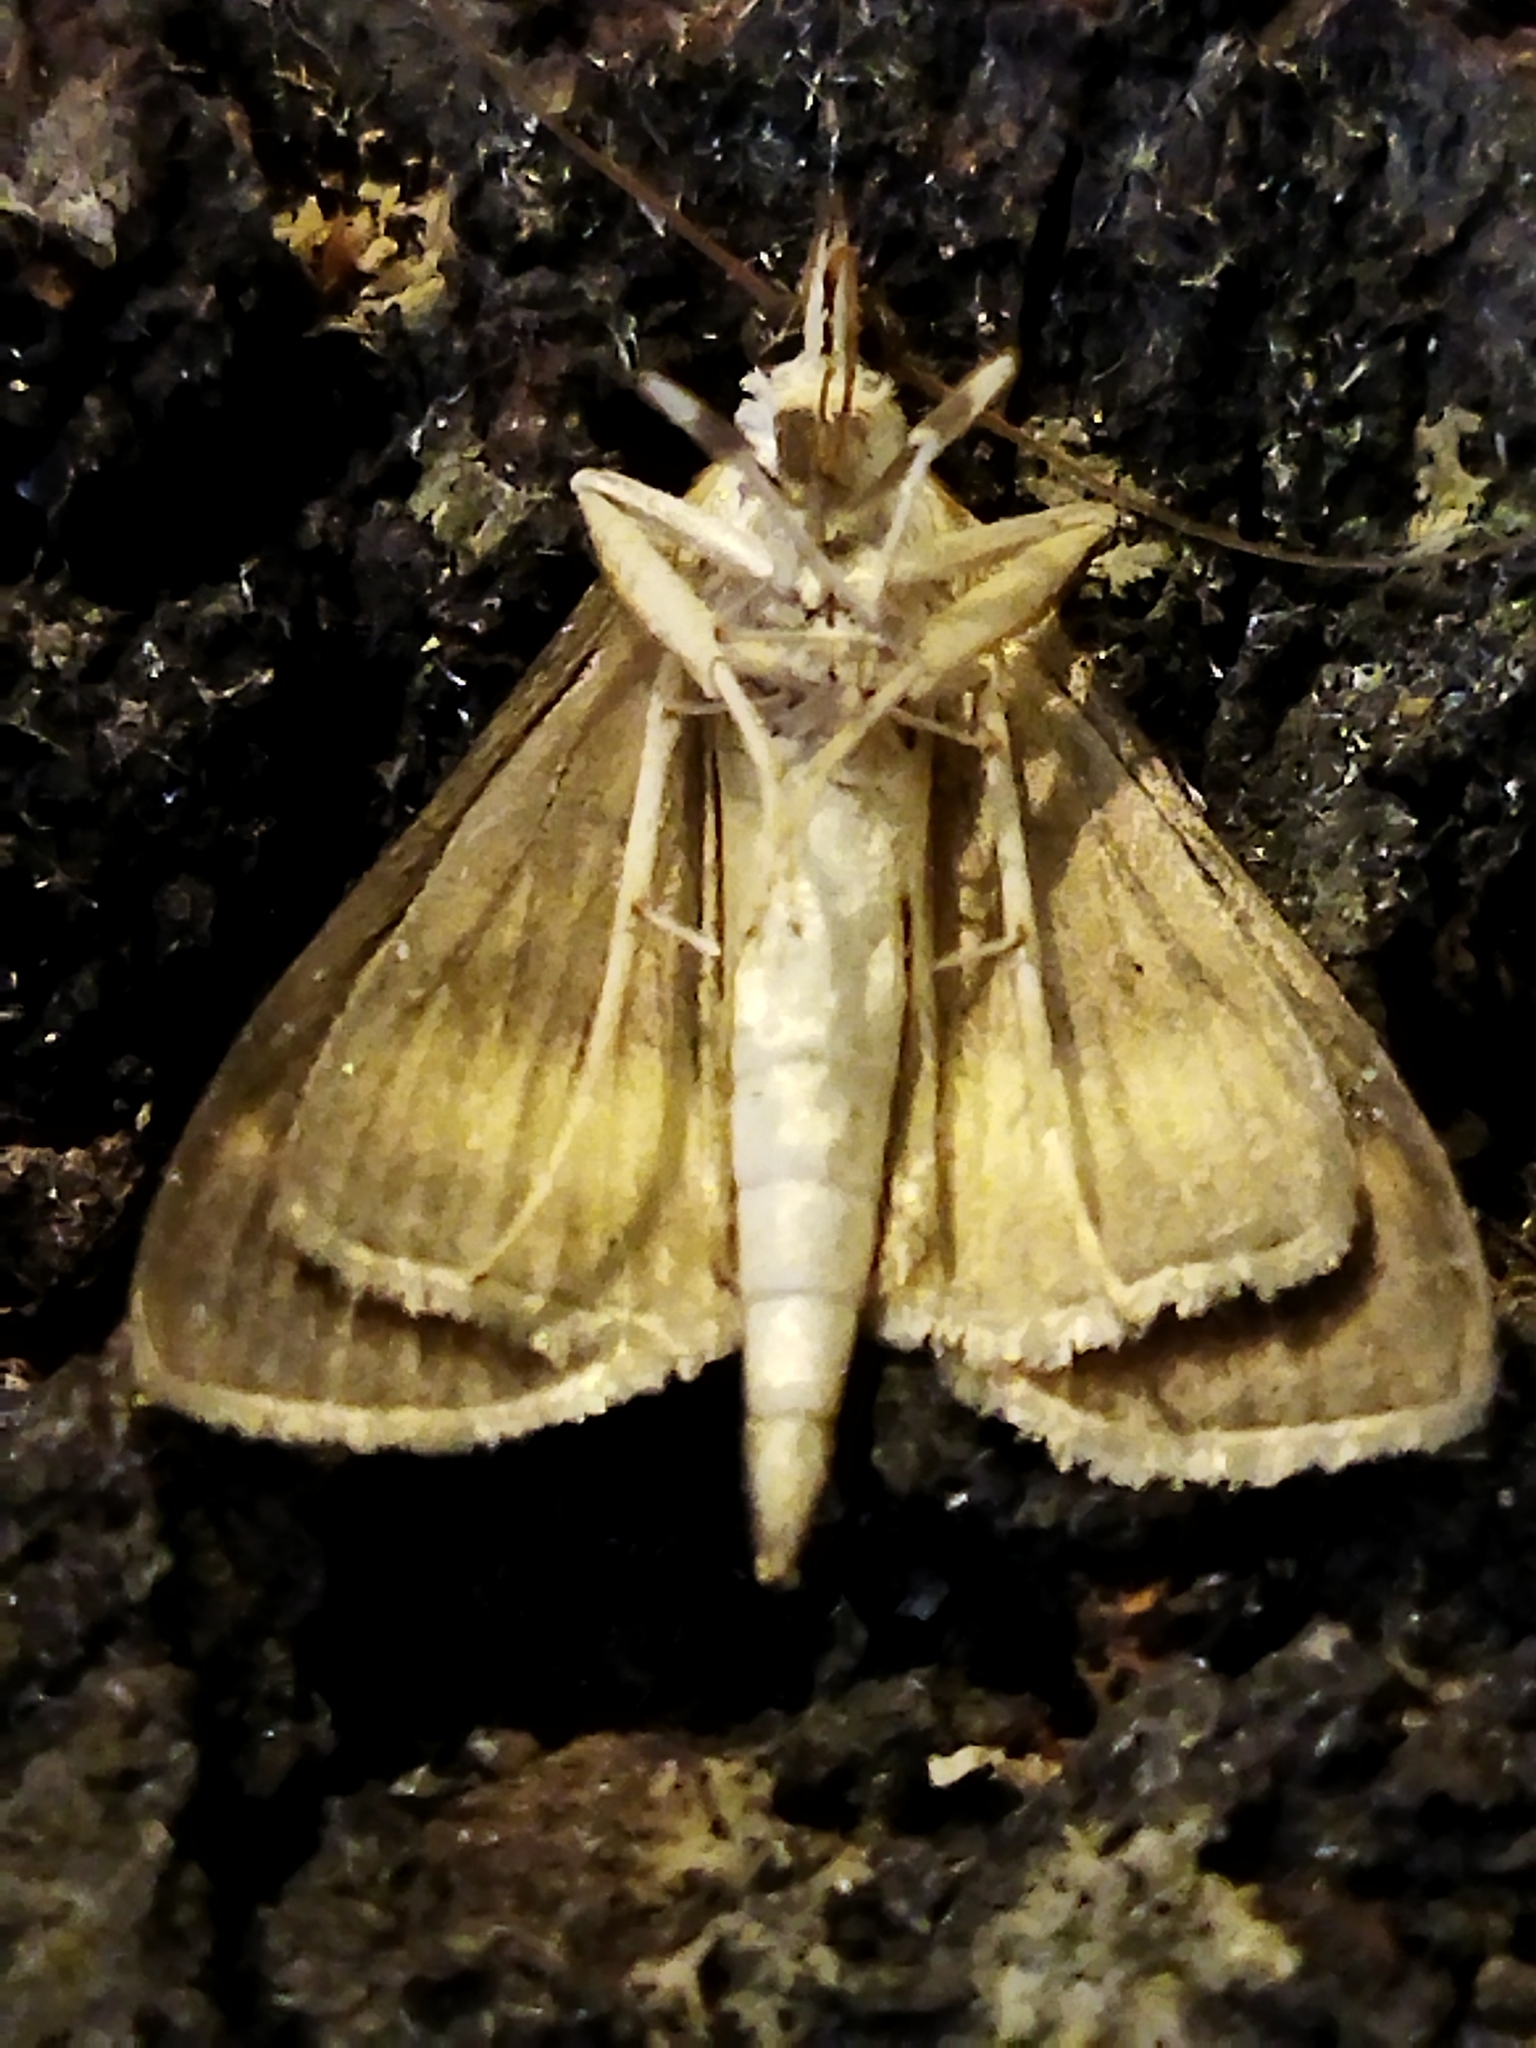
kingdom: Animalia
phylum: Arthropoda
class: Insecta
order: Lepidoptera
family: Crambidae
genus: Ostrinia
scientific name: Ostrinia nubilalis
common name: European corn borer
